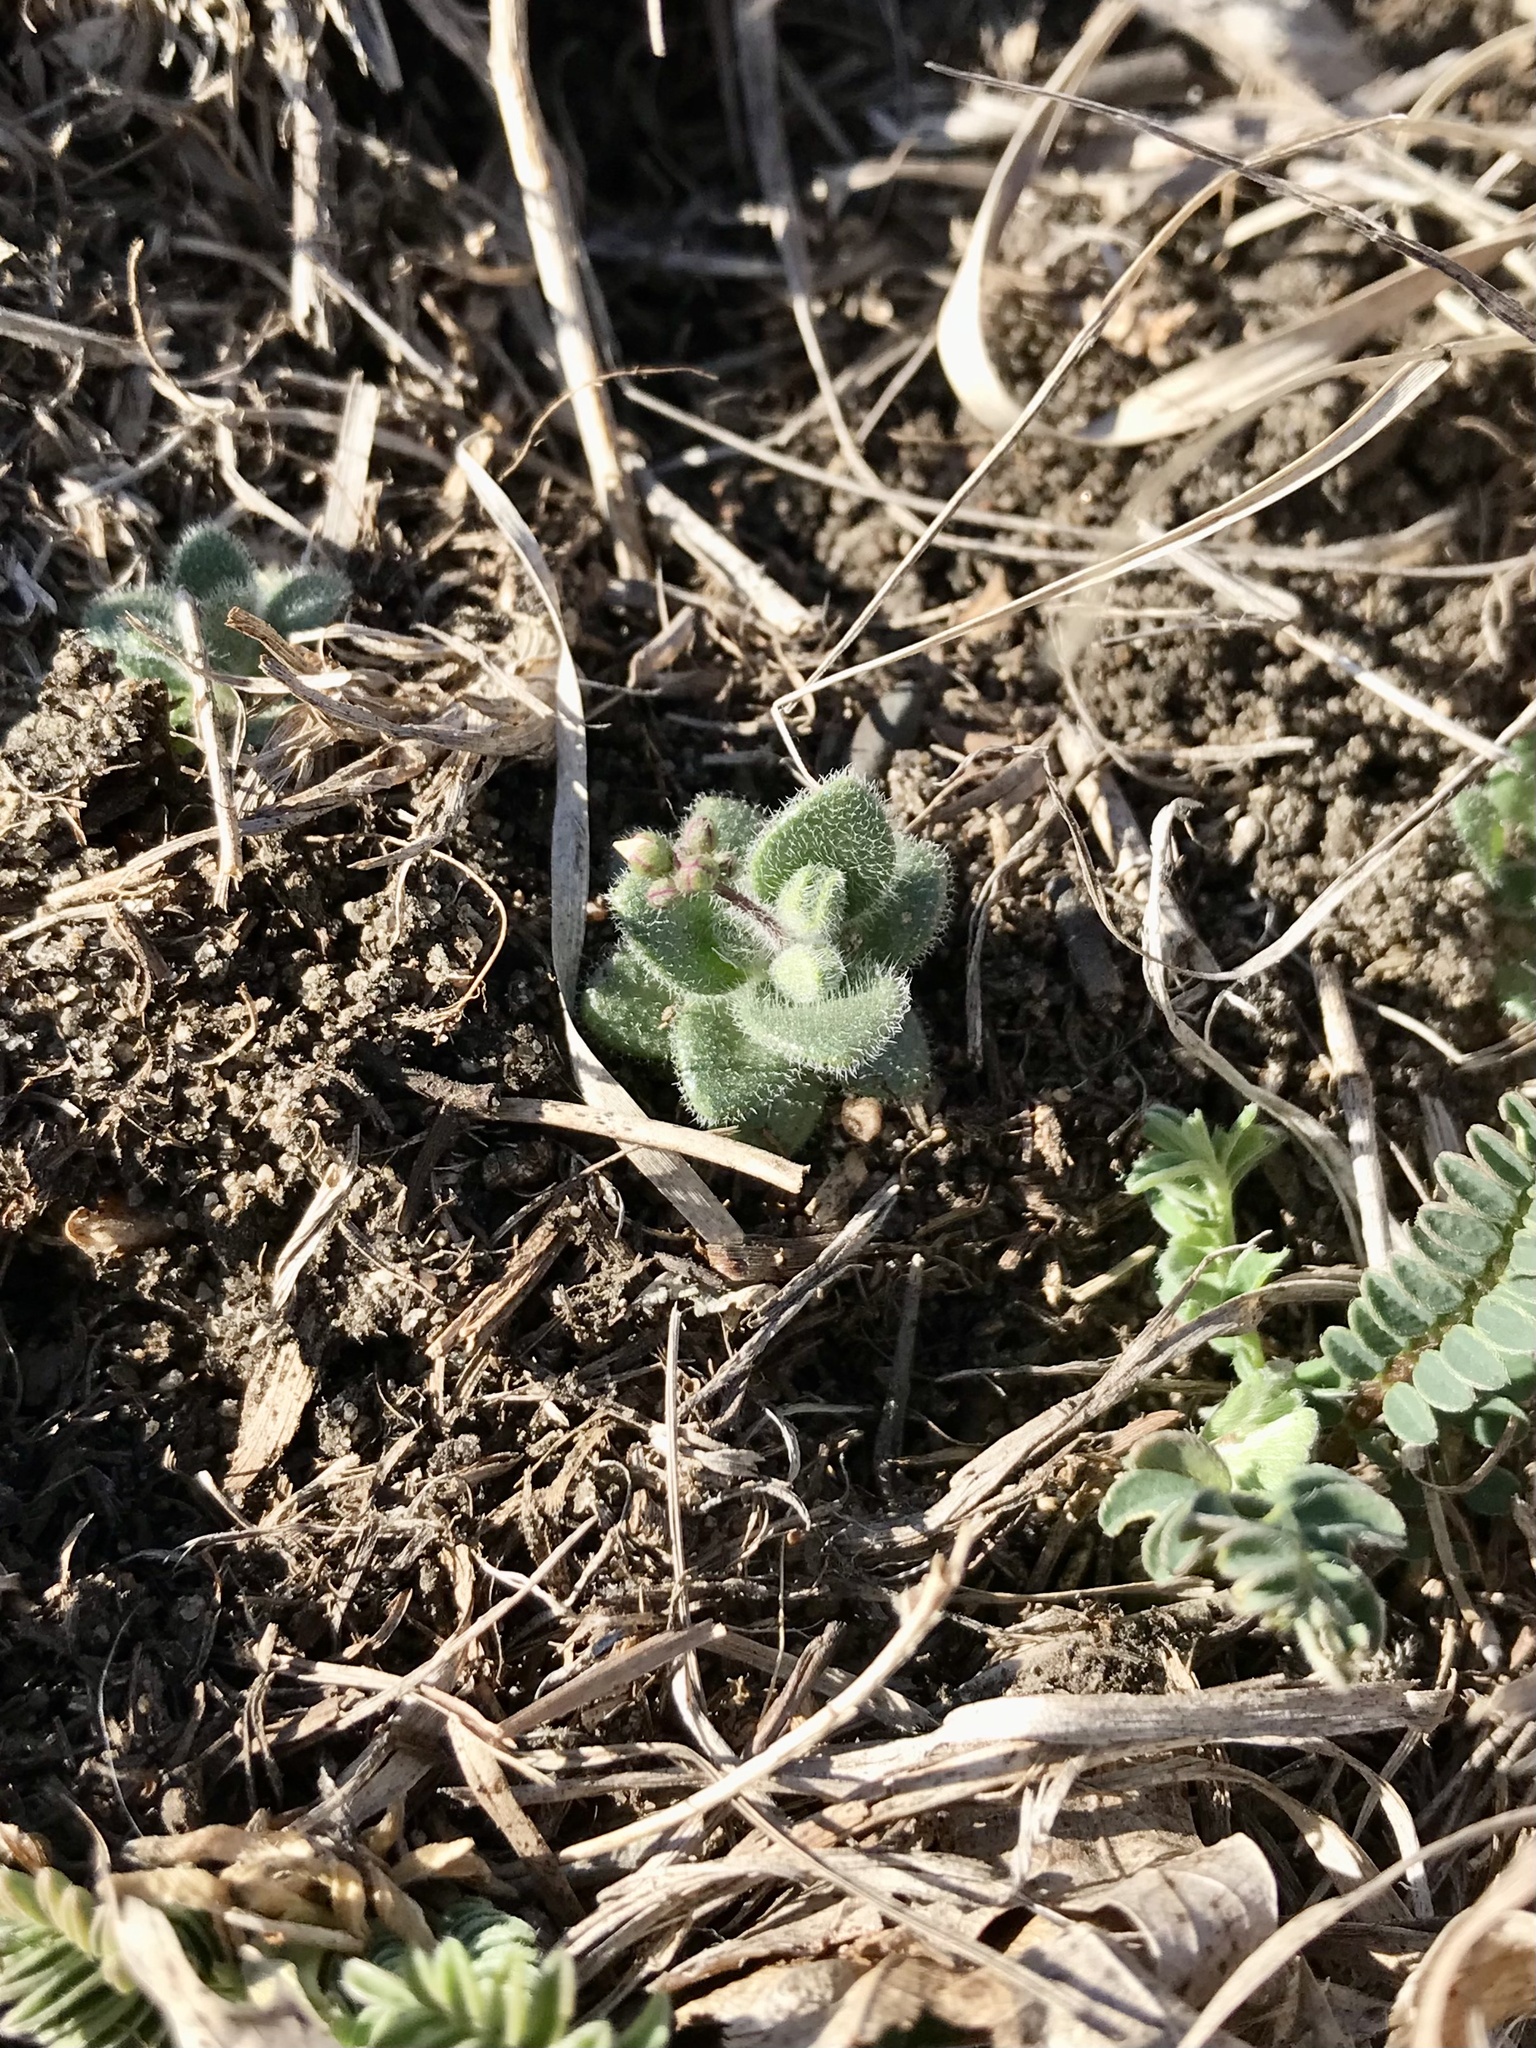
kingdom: Plantae
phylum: Tracheophyta
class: Magnoliopsida
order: Brassicales
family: Brassicaceae
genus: Tomostima
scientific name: Tomostima reptans
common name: Carolina draba
